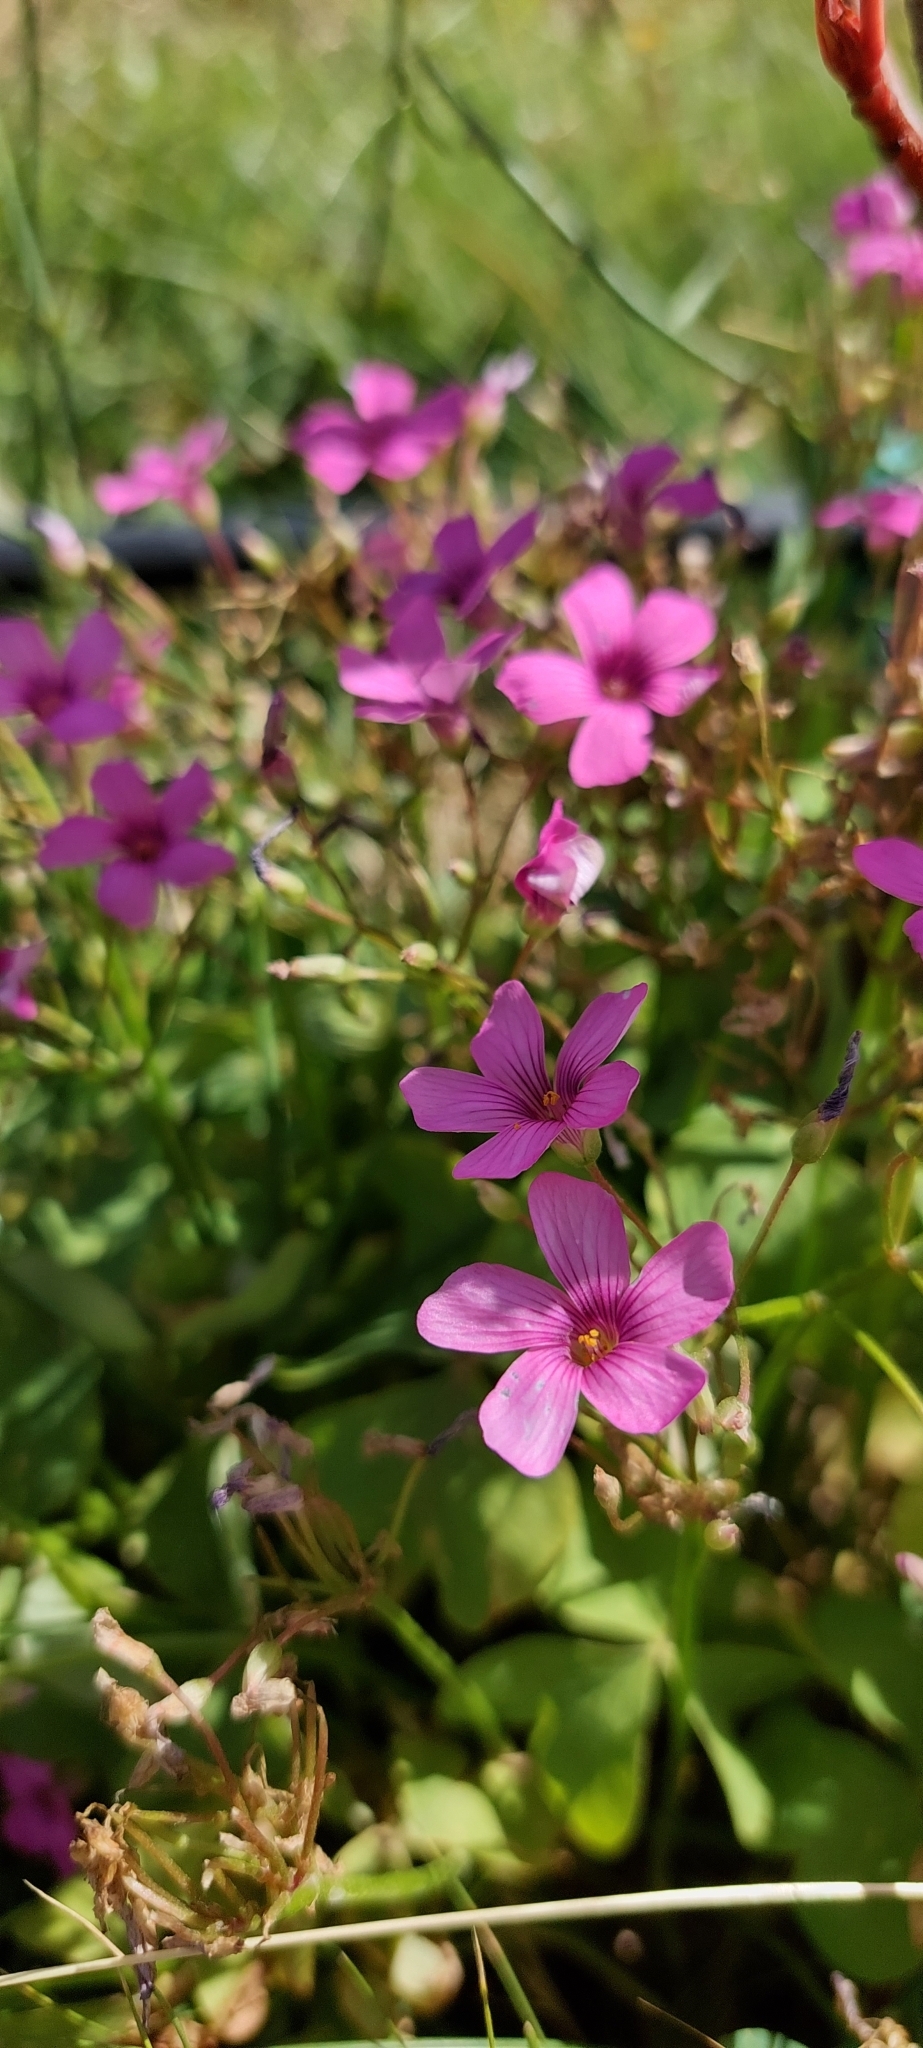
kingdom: Plantae
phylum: Tracheophyta
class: Magnoliopsida
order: Oxalidales
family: Oxalidaceae
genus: Oxalis
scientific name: Oxalis articulata
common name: Pink-sorrel
